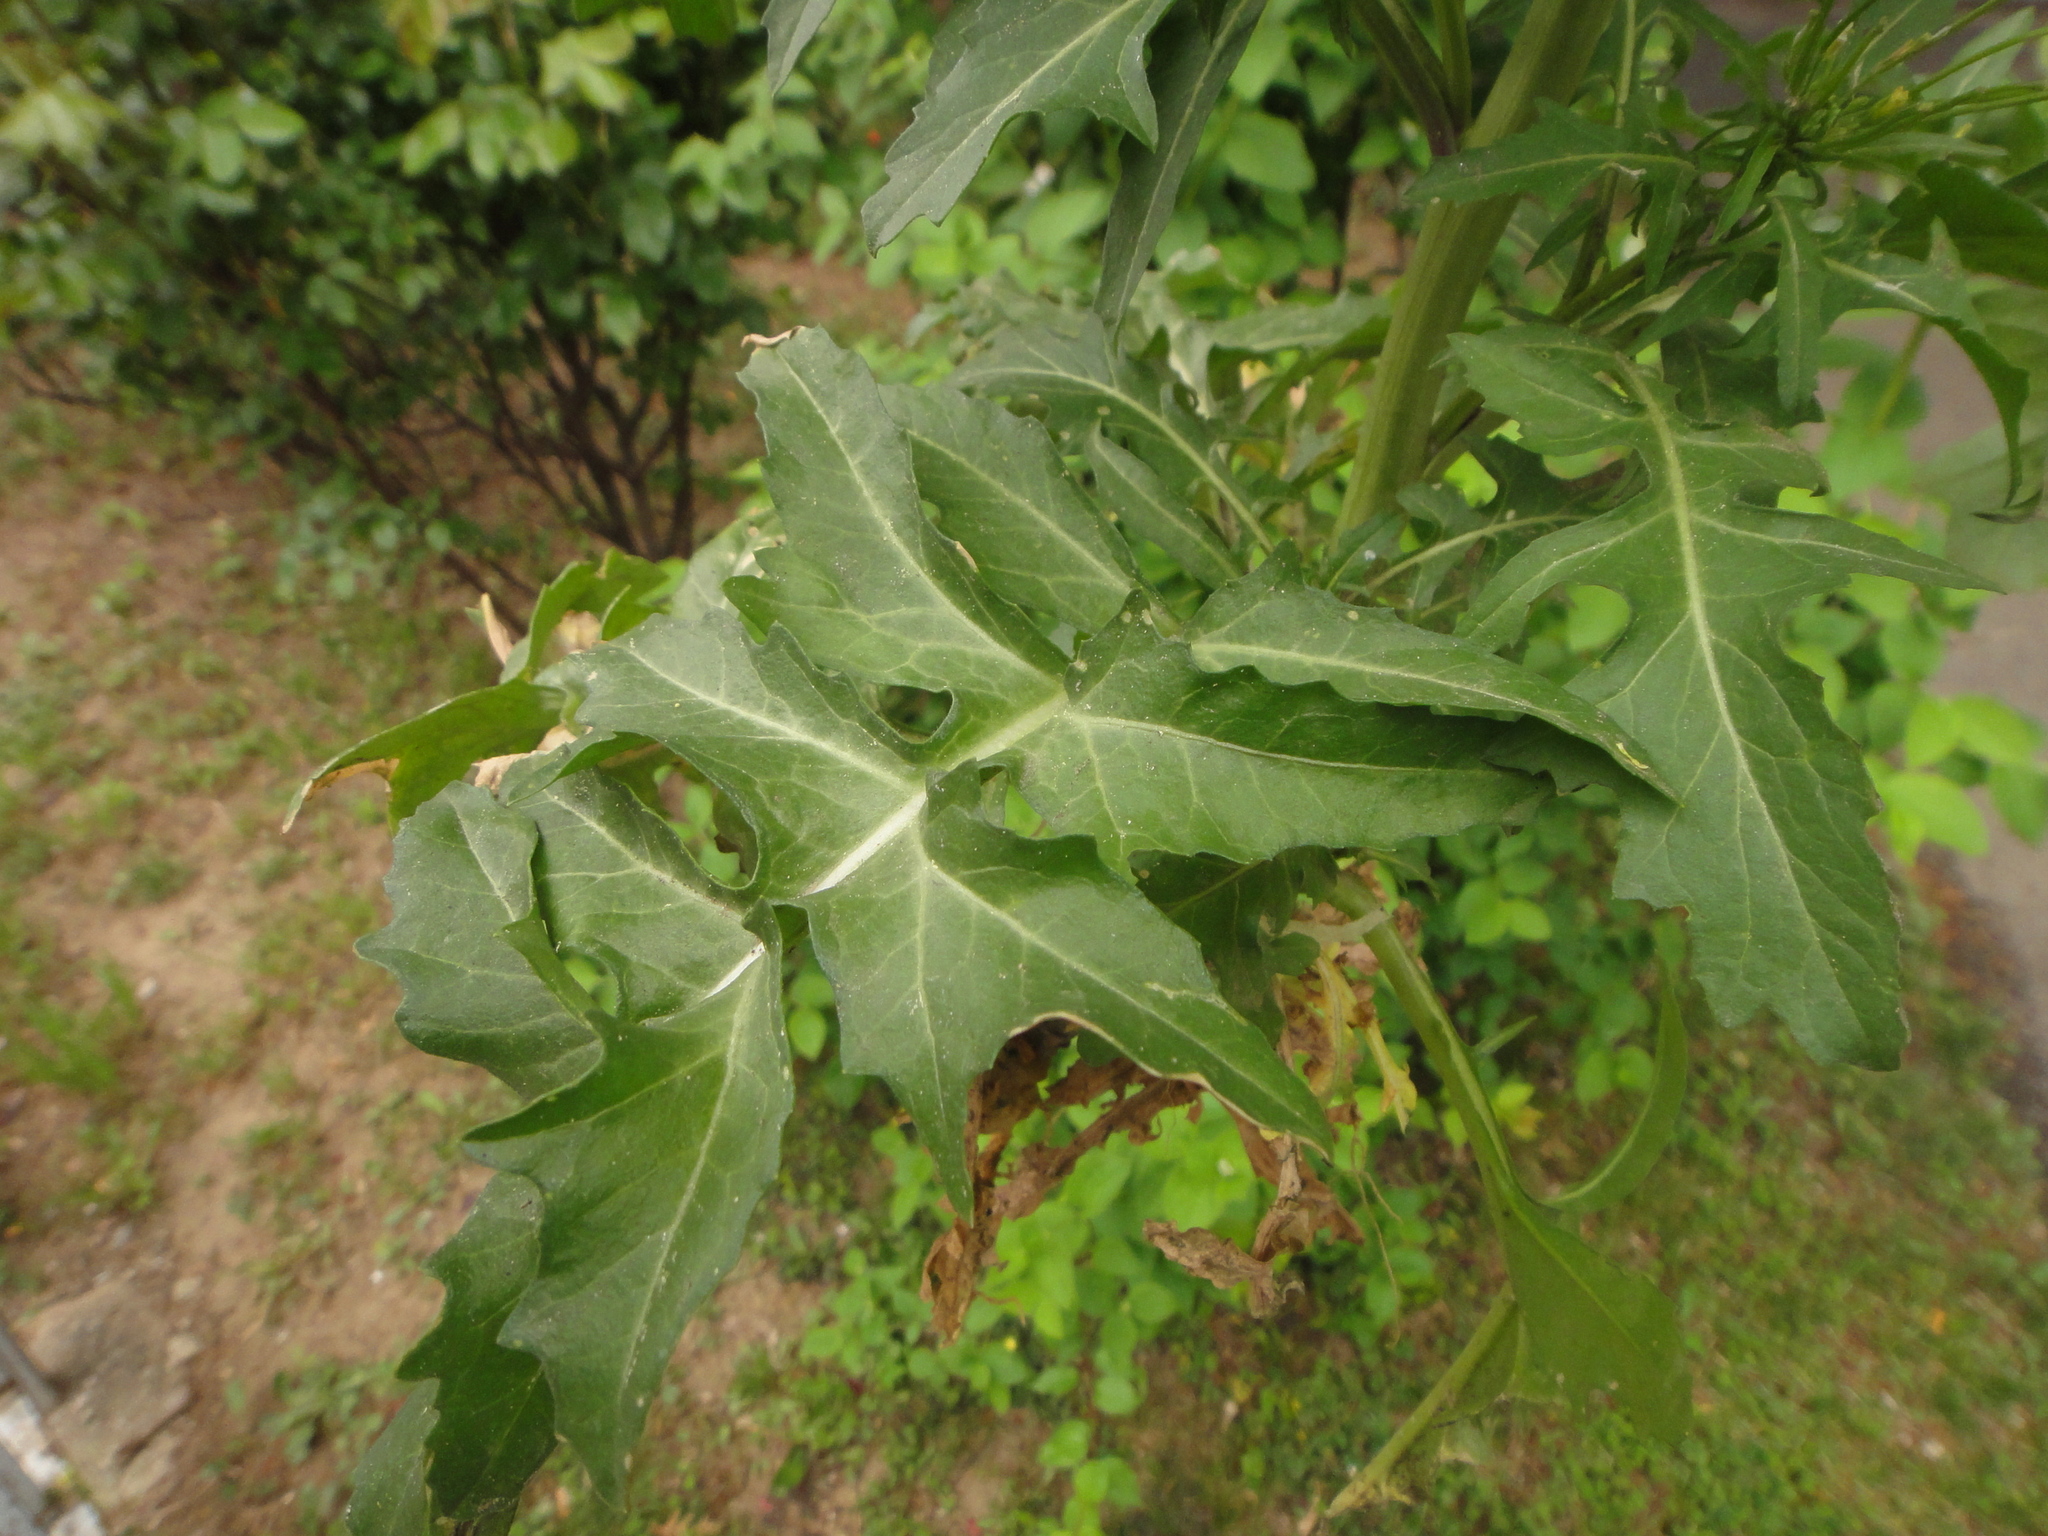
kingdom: Plantae
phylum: Tracheophyta
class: Magnoliopsida
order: Brassicales
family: Brassicaceae
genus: Sisymbrium
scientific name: Sisymbrium irio
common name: London rocket
